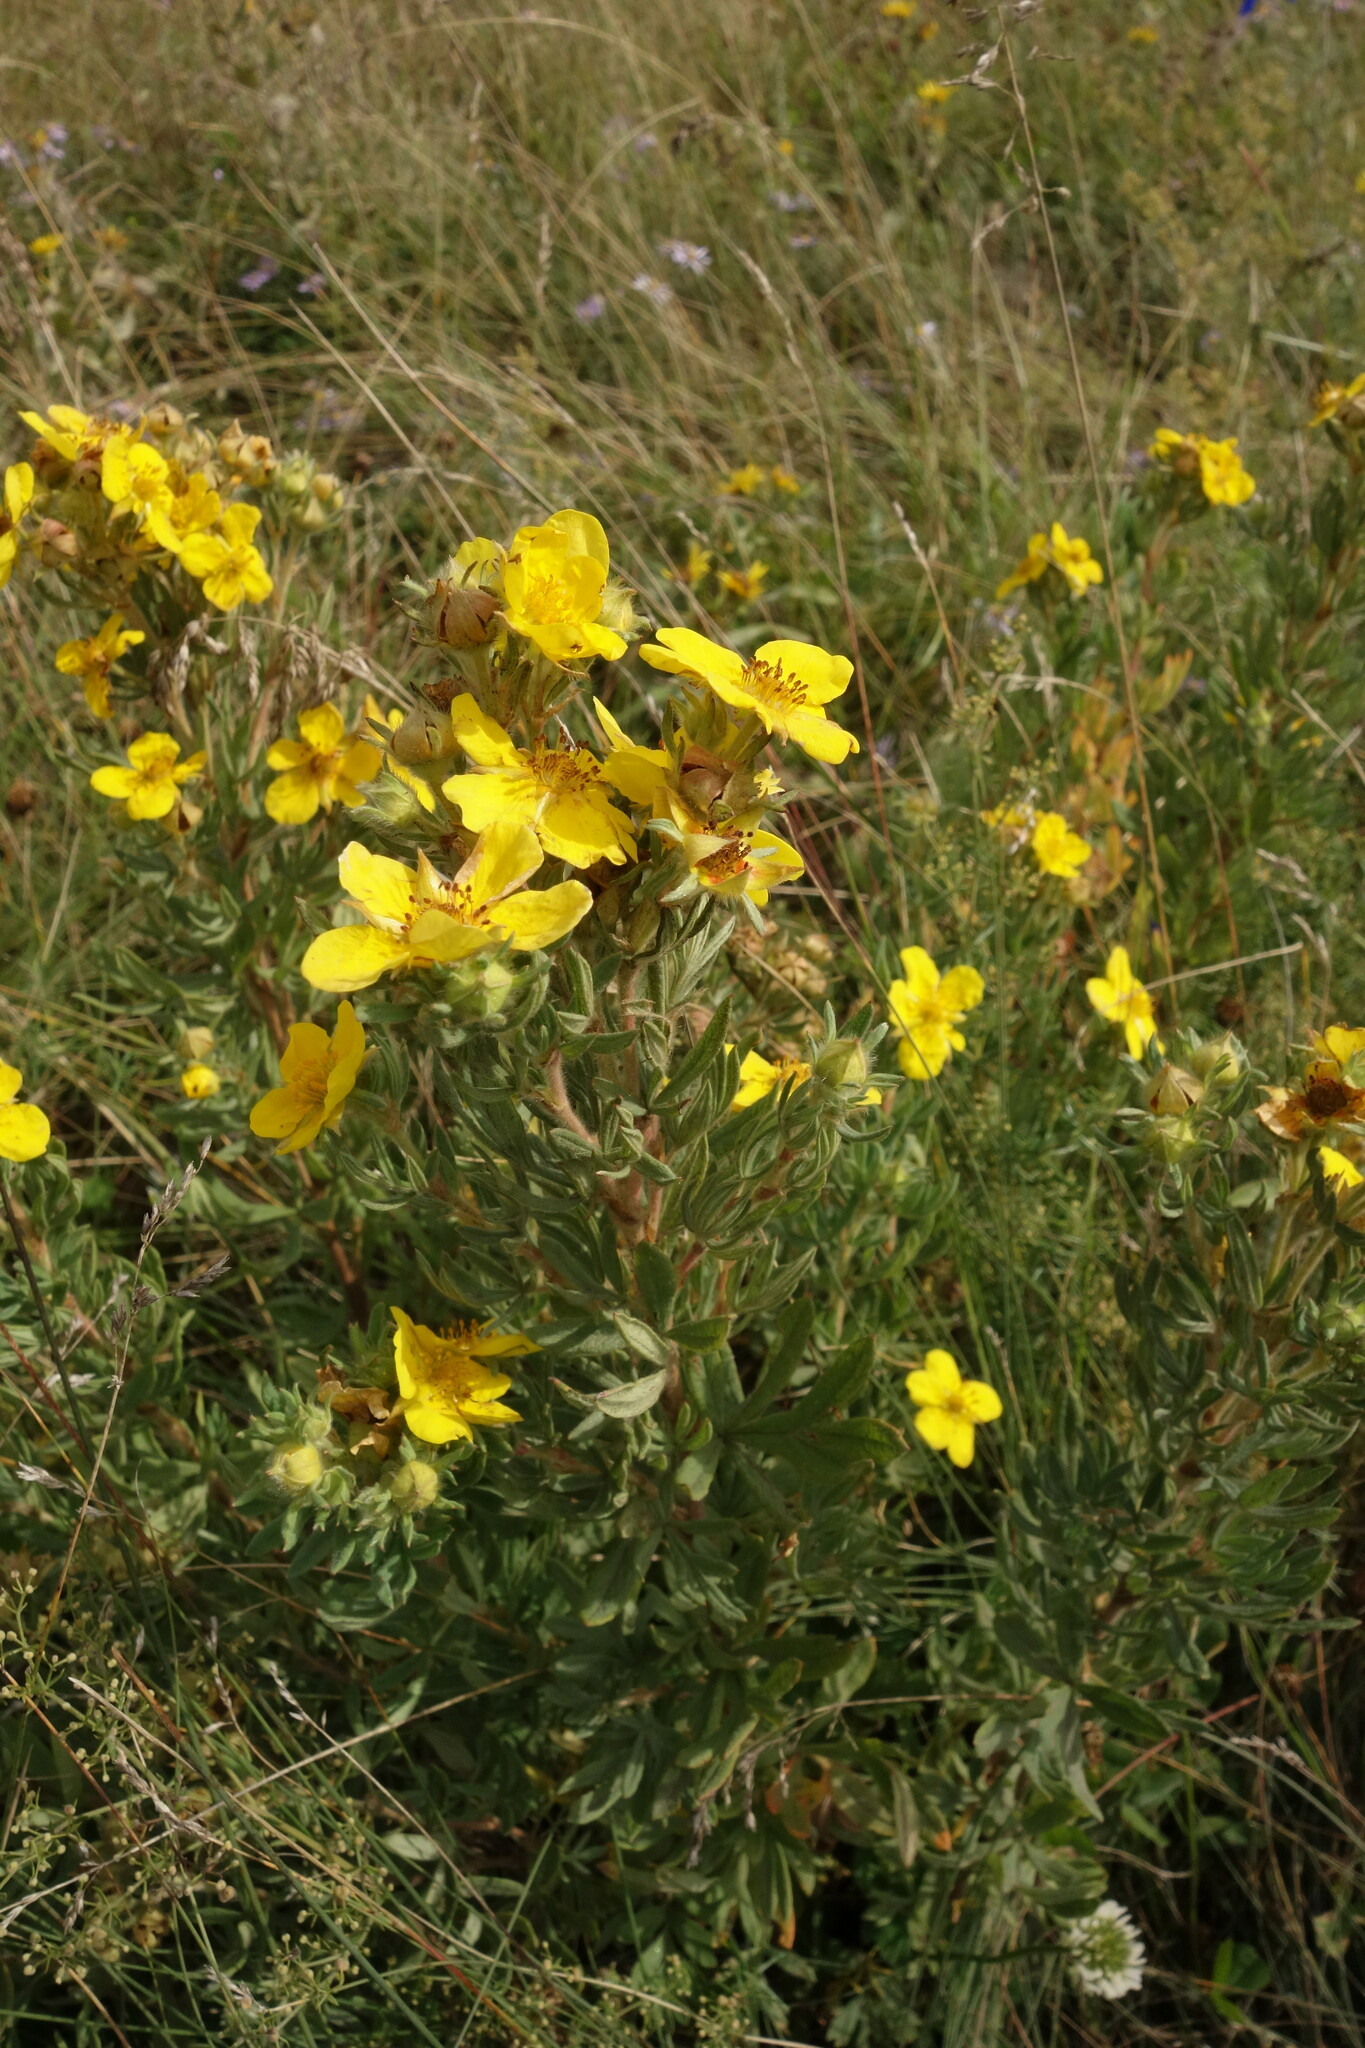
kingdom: Plantae
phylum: Tracheophyta
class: Magnoliopsida
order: Rosales
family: Rosaceae
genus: Dasiphora
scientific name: Dasiphora fruticosa
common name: Shrubby cinquefoil
